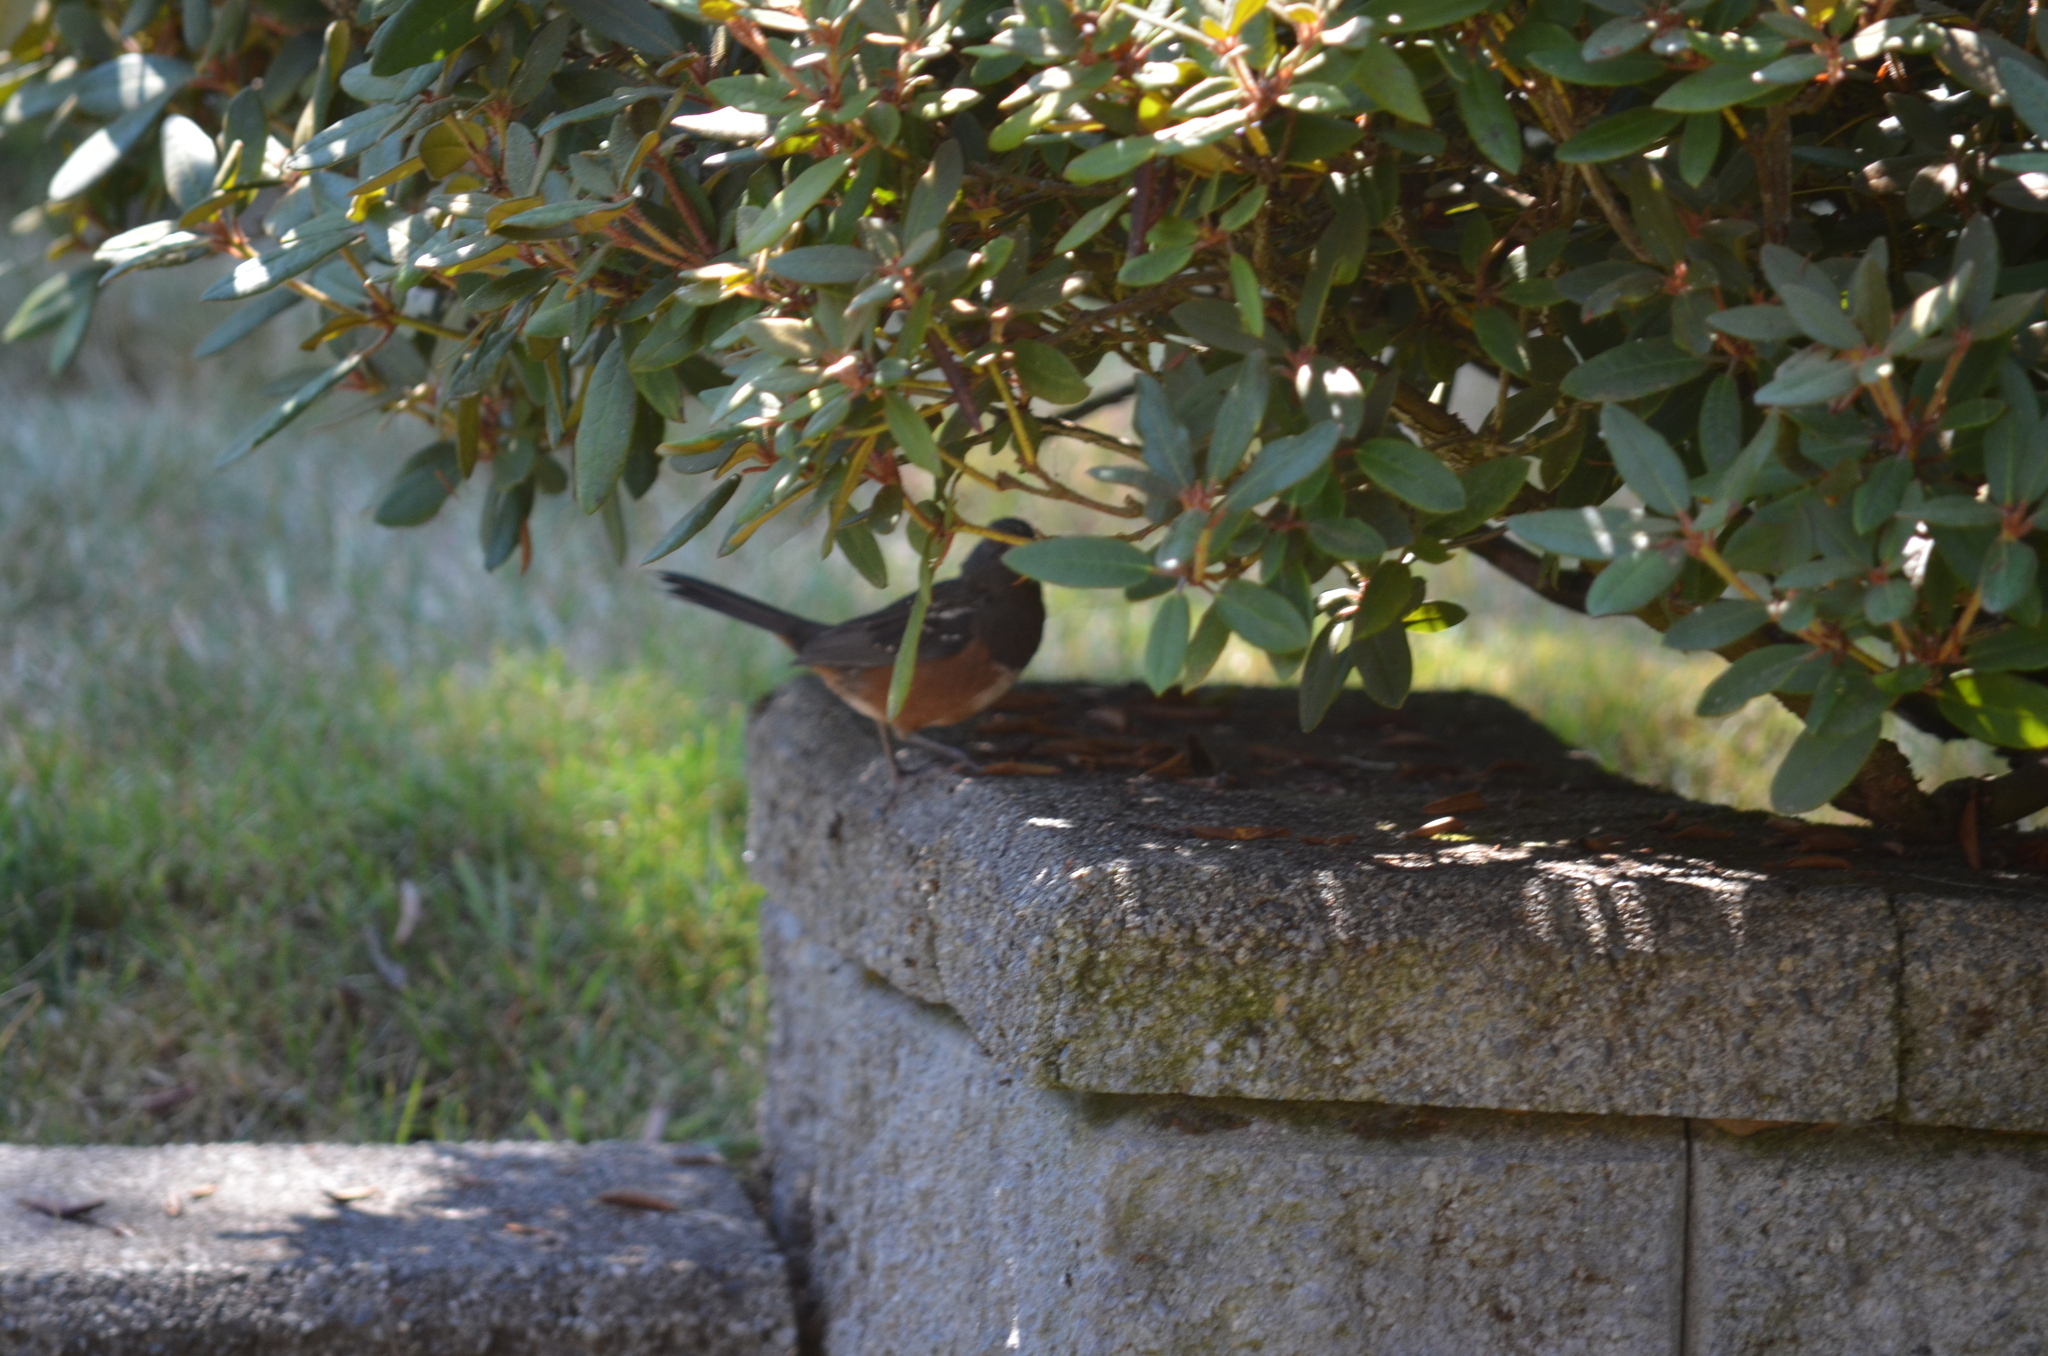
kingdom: Animalia
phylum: Chordata
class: Aves
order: Passeriformes
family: Passerellidae
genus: Pipilo
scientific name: Pipilo maculatus
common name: Spotted towhee
